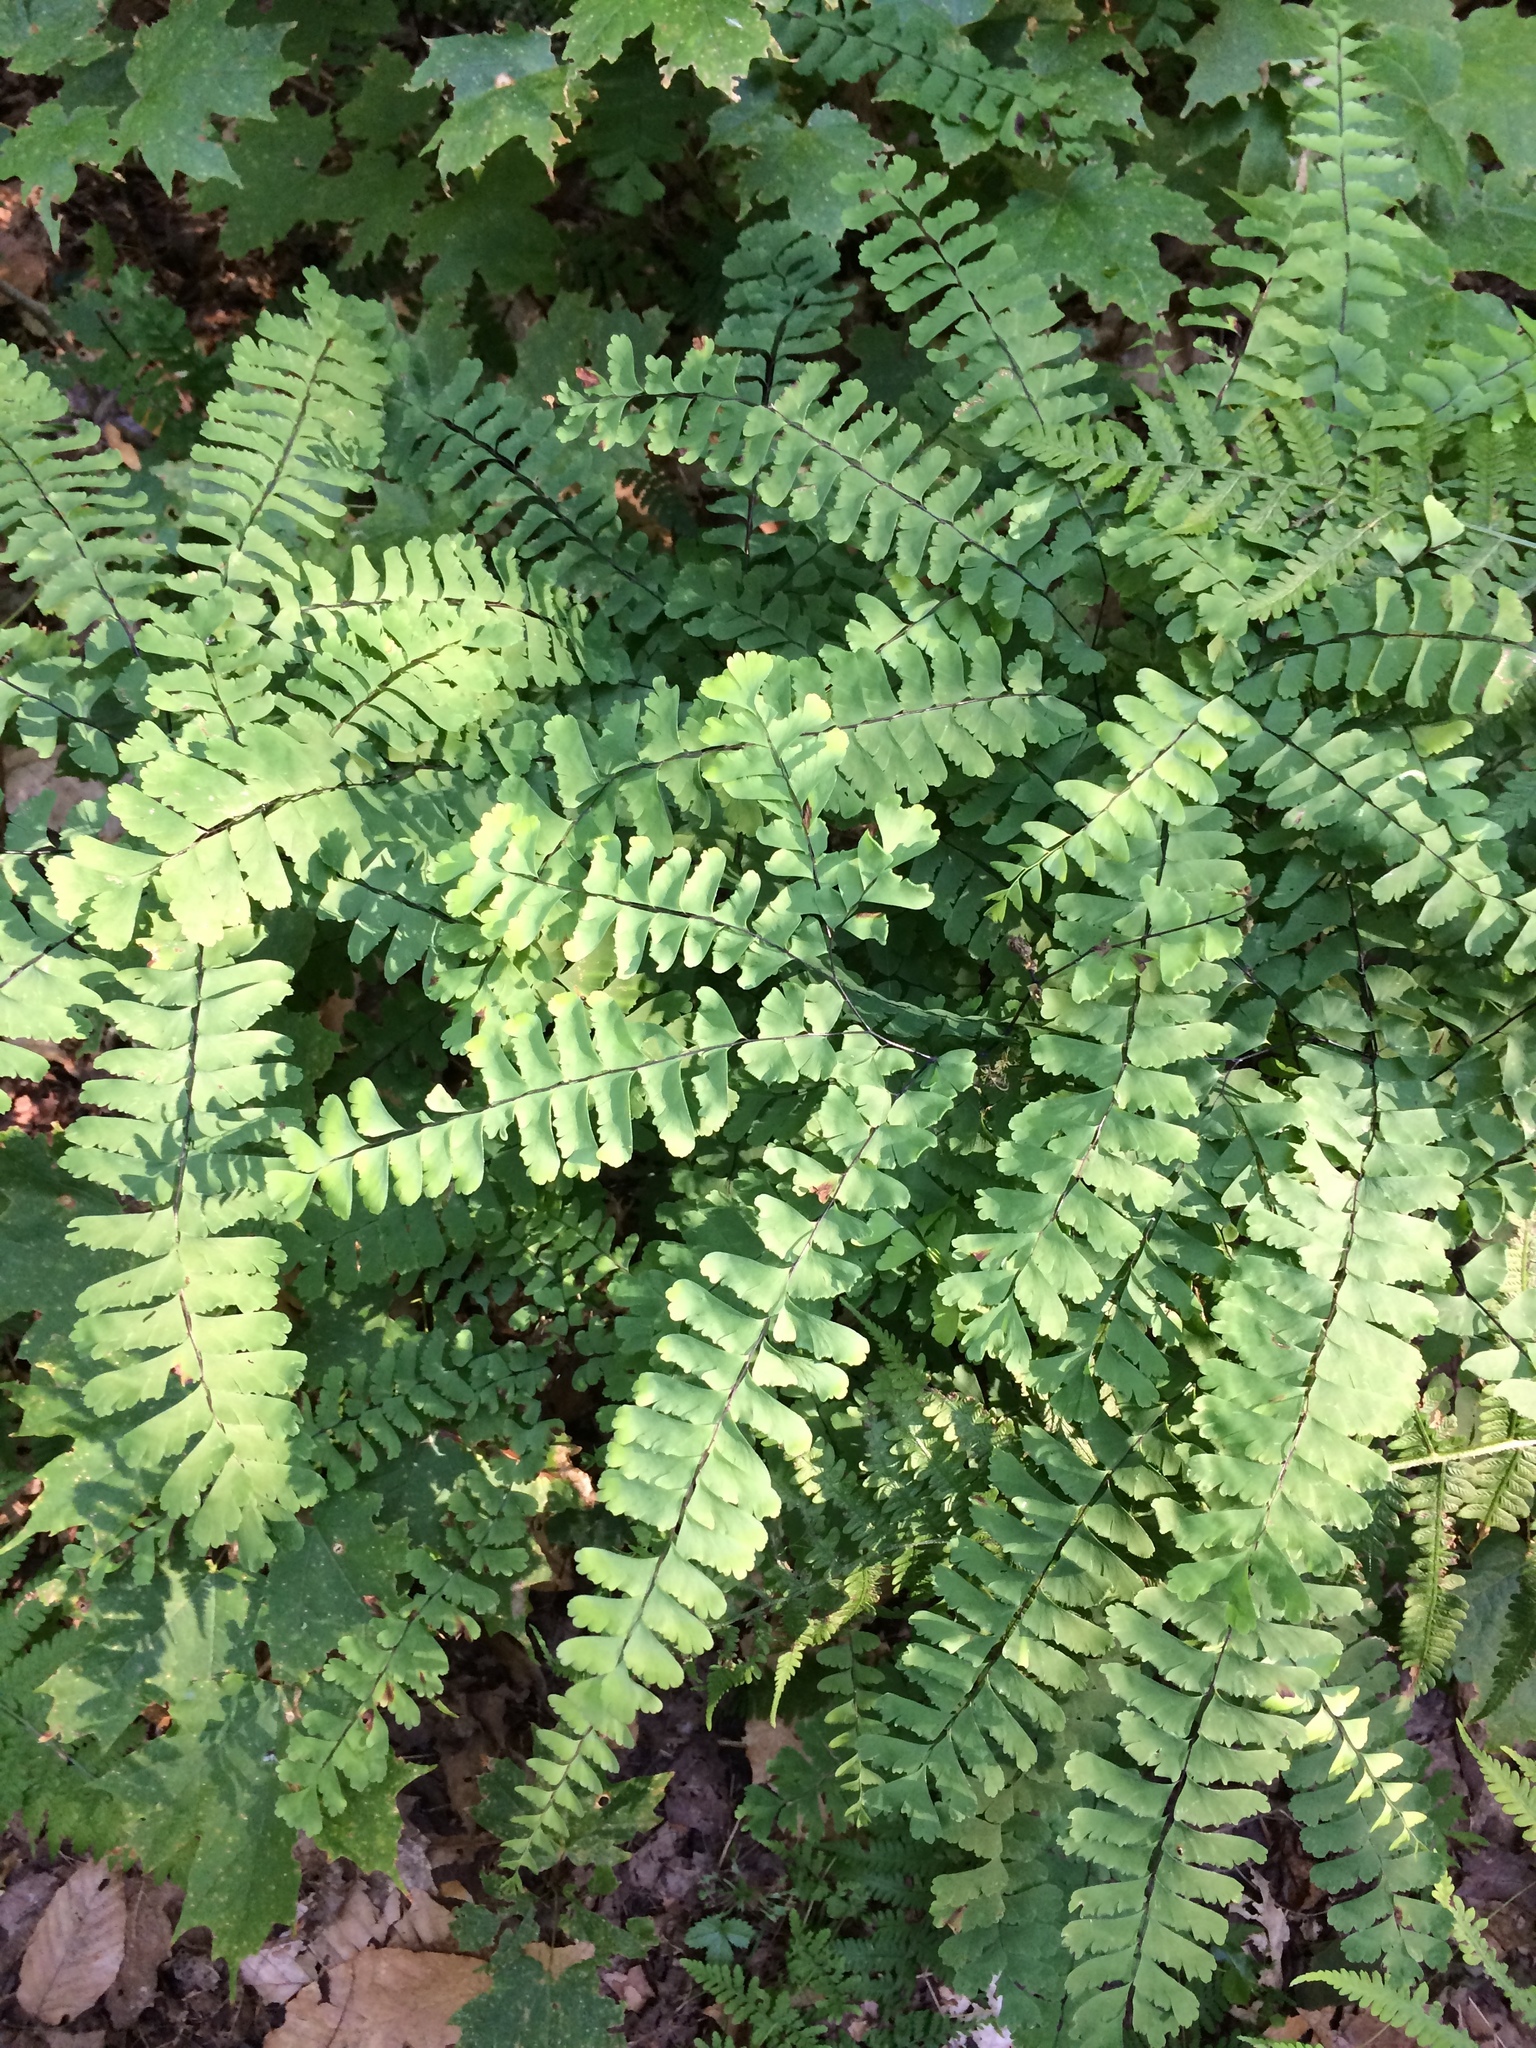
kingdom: Plantae
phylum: Tracheophyta
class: Polypodiopsida
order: Polypodiales
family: Pteridaceae
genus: Adiantum
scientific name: Adiantum pedatum
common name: Five-finger fern
